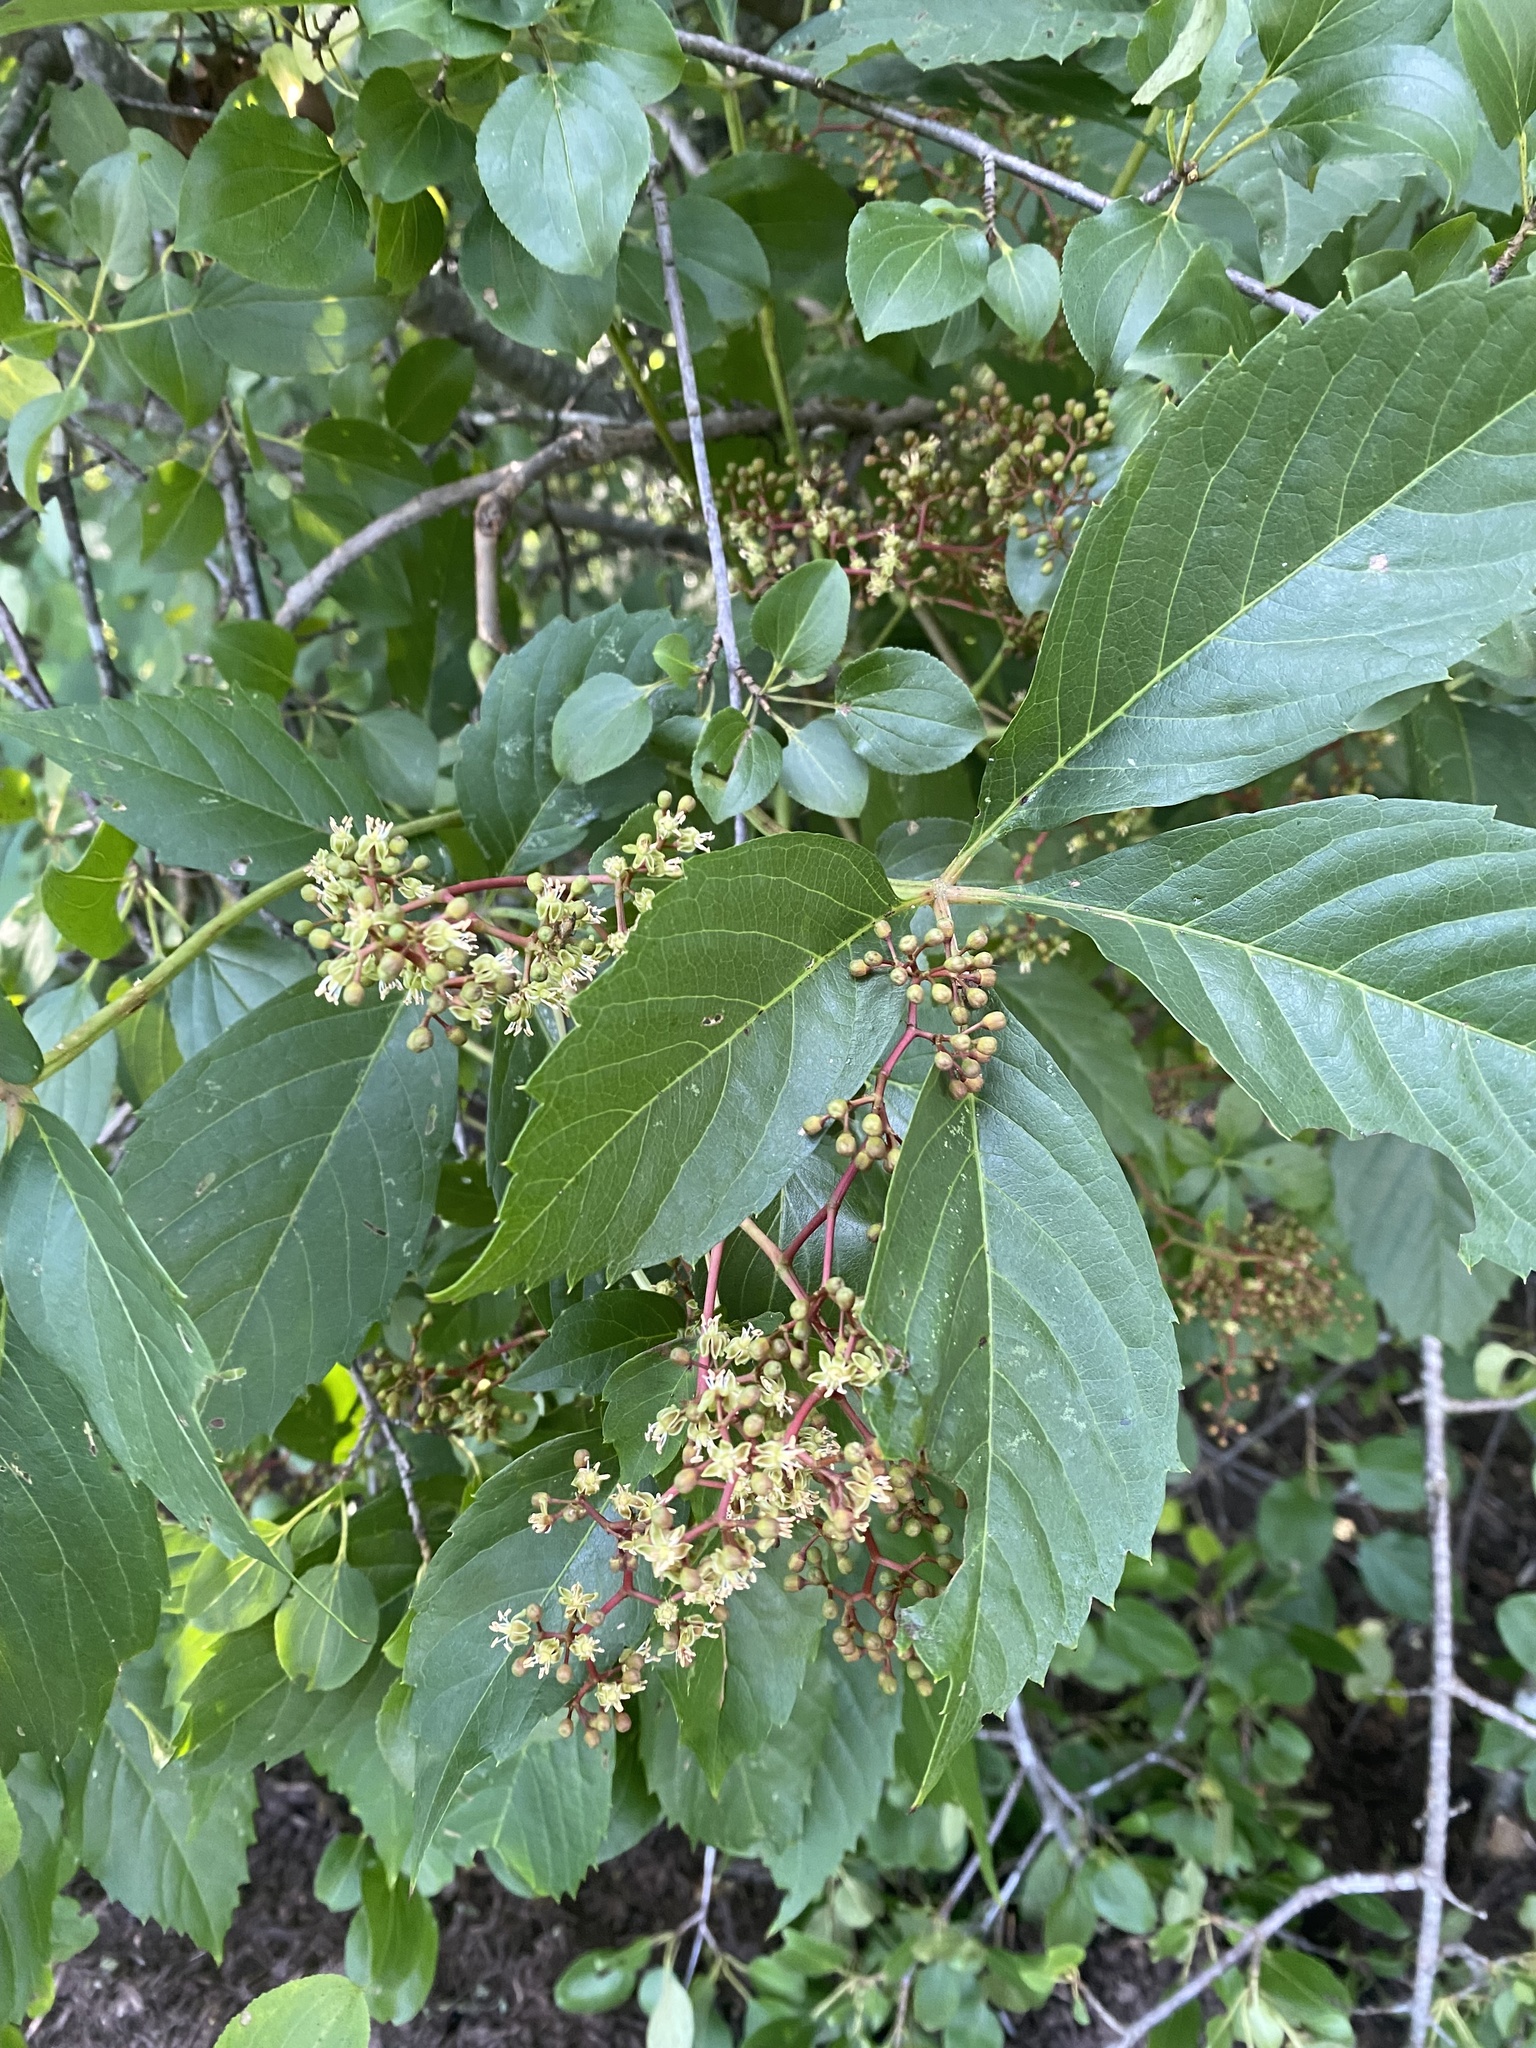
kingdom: Plantae
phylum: Tracheophyta
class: Magnoliopsida
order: Vitales
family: Vitaceae
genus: Parthenocissus
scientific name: Parthenocissus inserta
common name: False virginia-creeper
